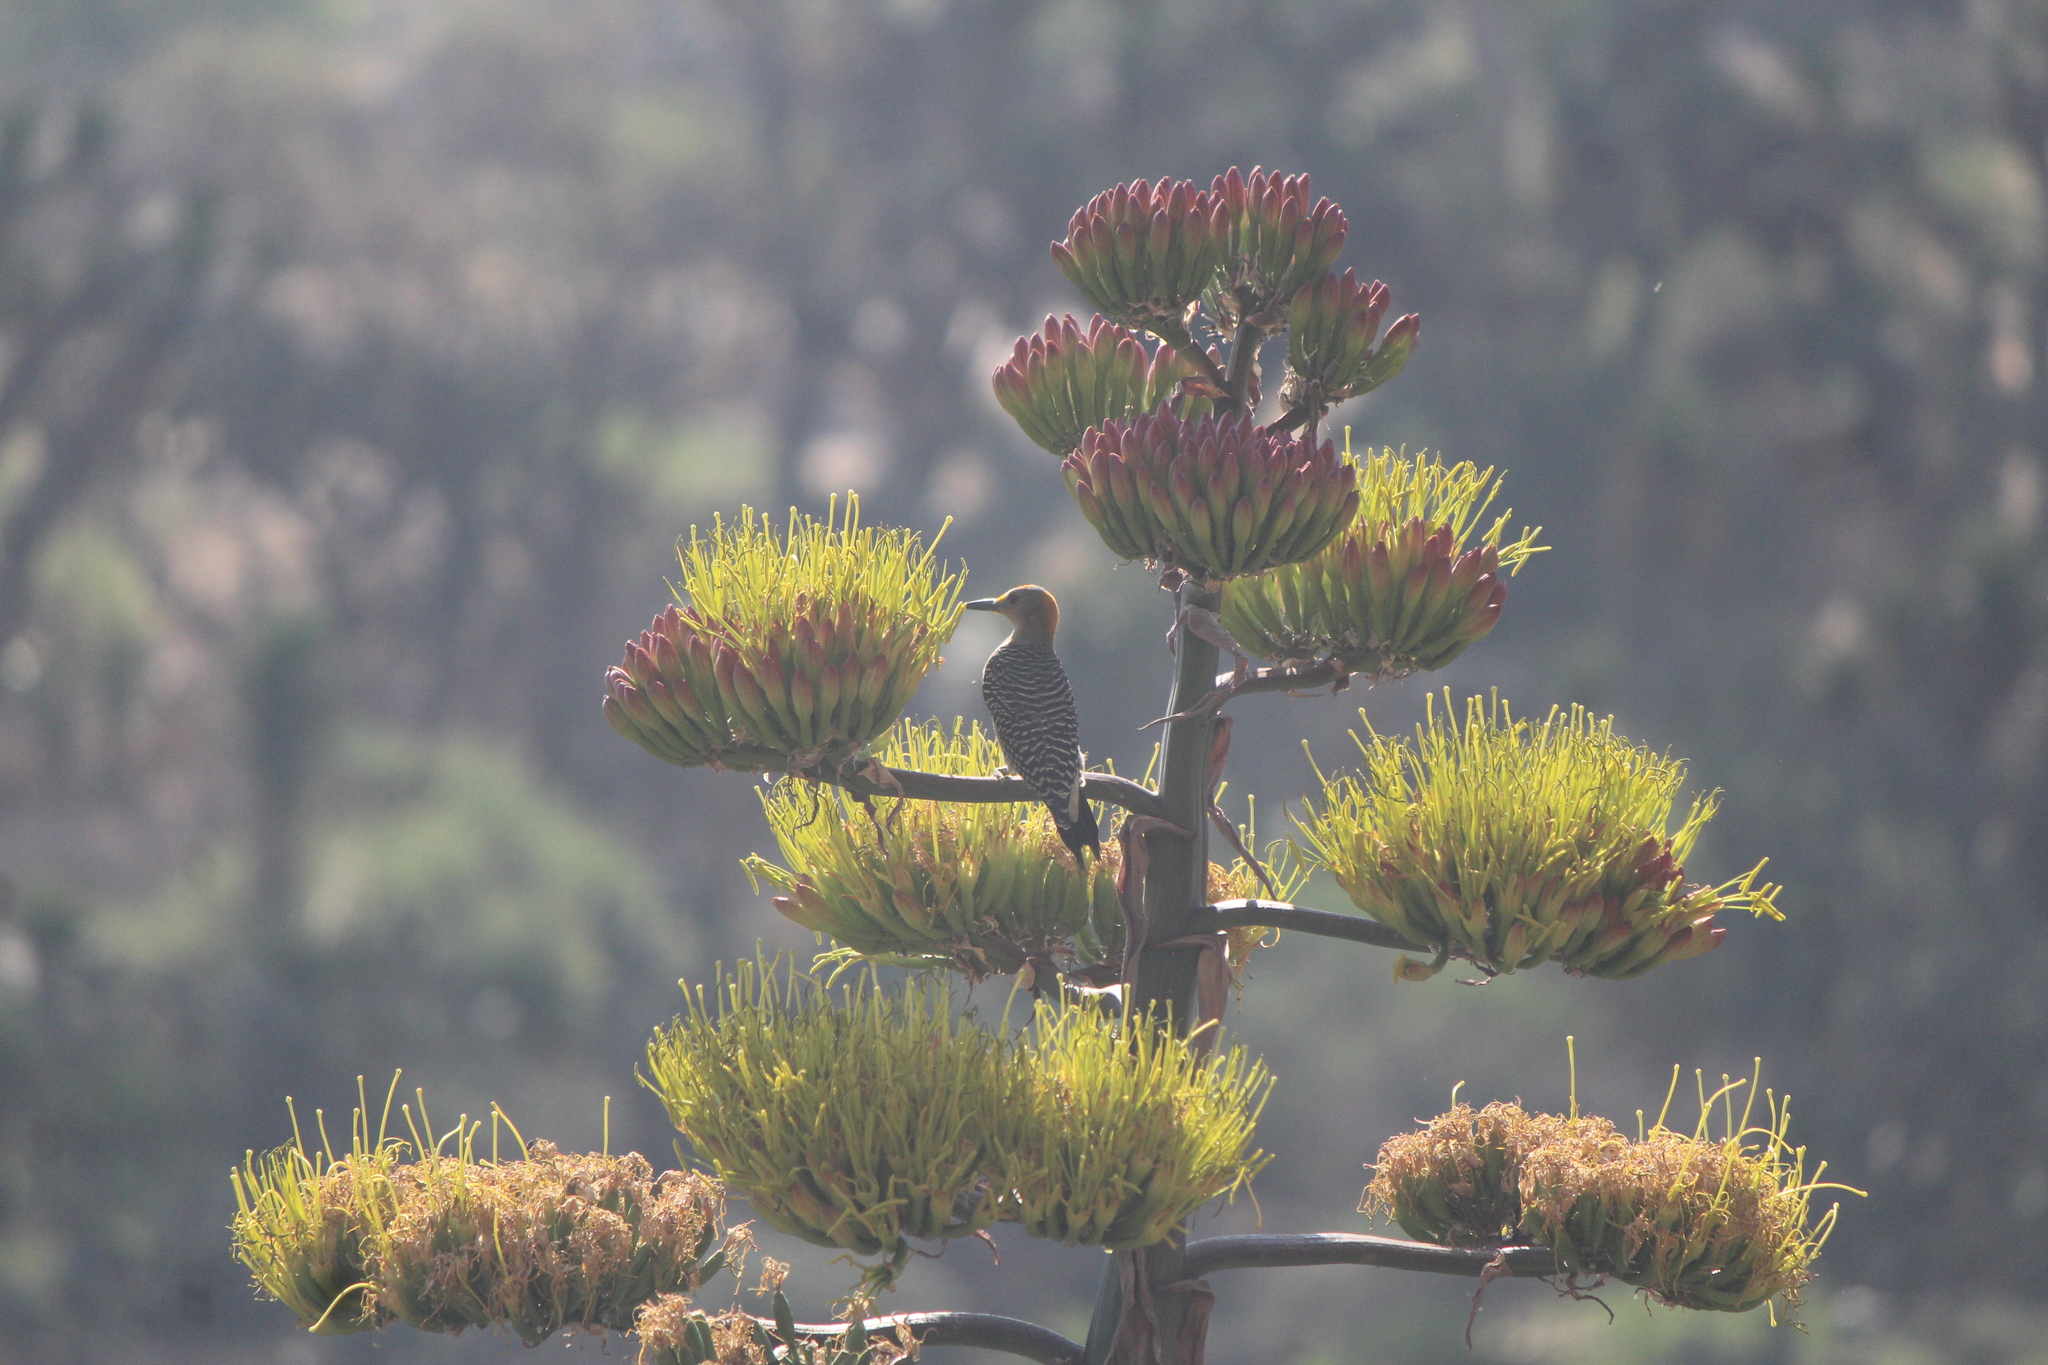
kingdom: Animalia
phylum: Chordata
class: Aves
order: Piciformes
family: Picidae
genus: Melanerpes
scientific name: Melanerpes aurifrons
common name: Golden-fronted woodpecker
